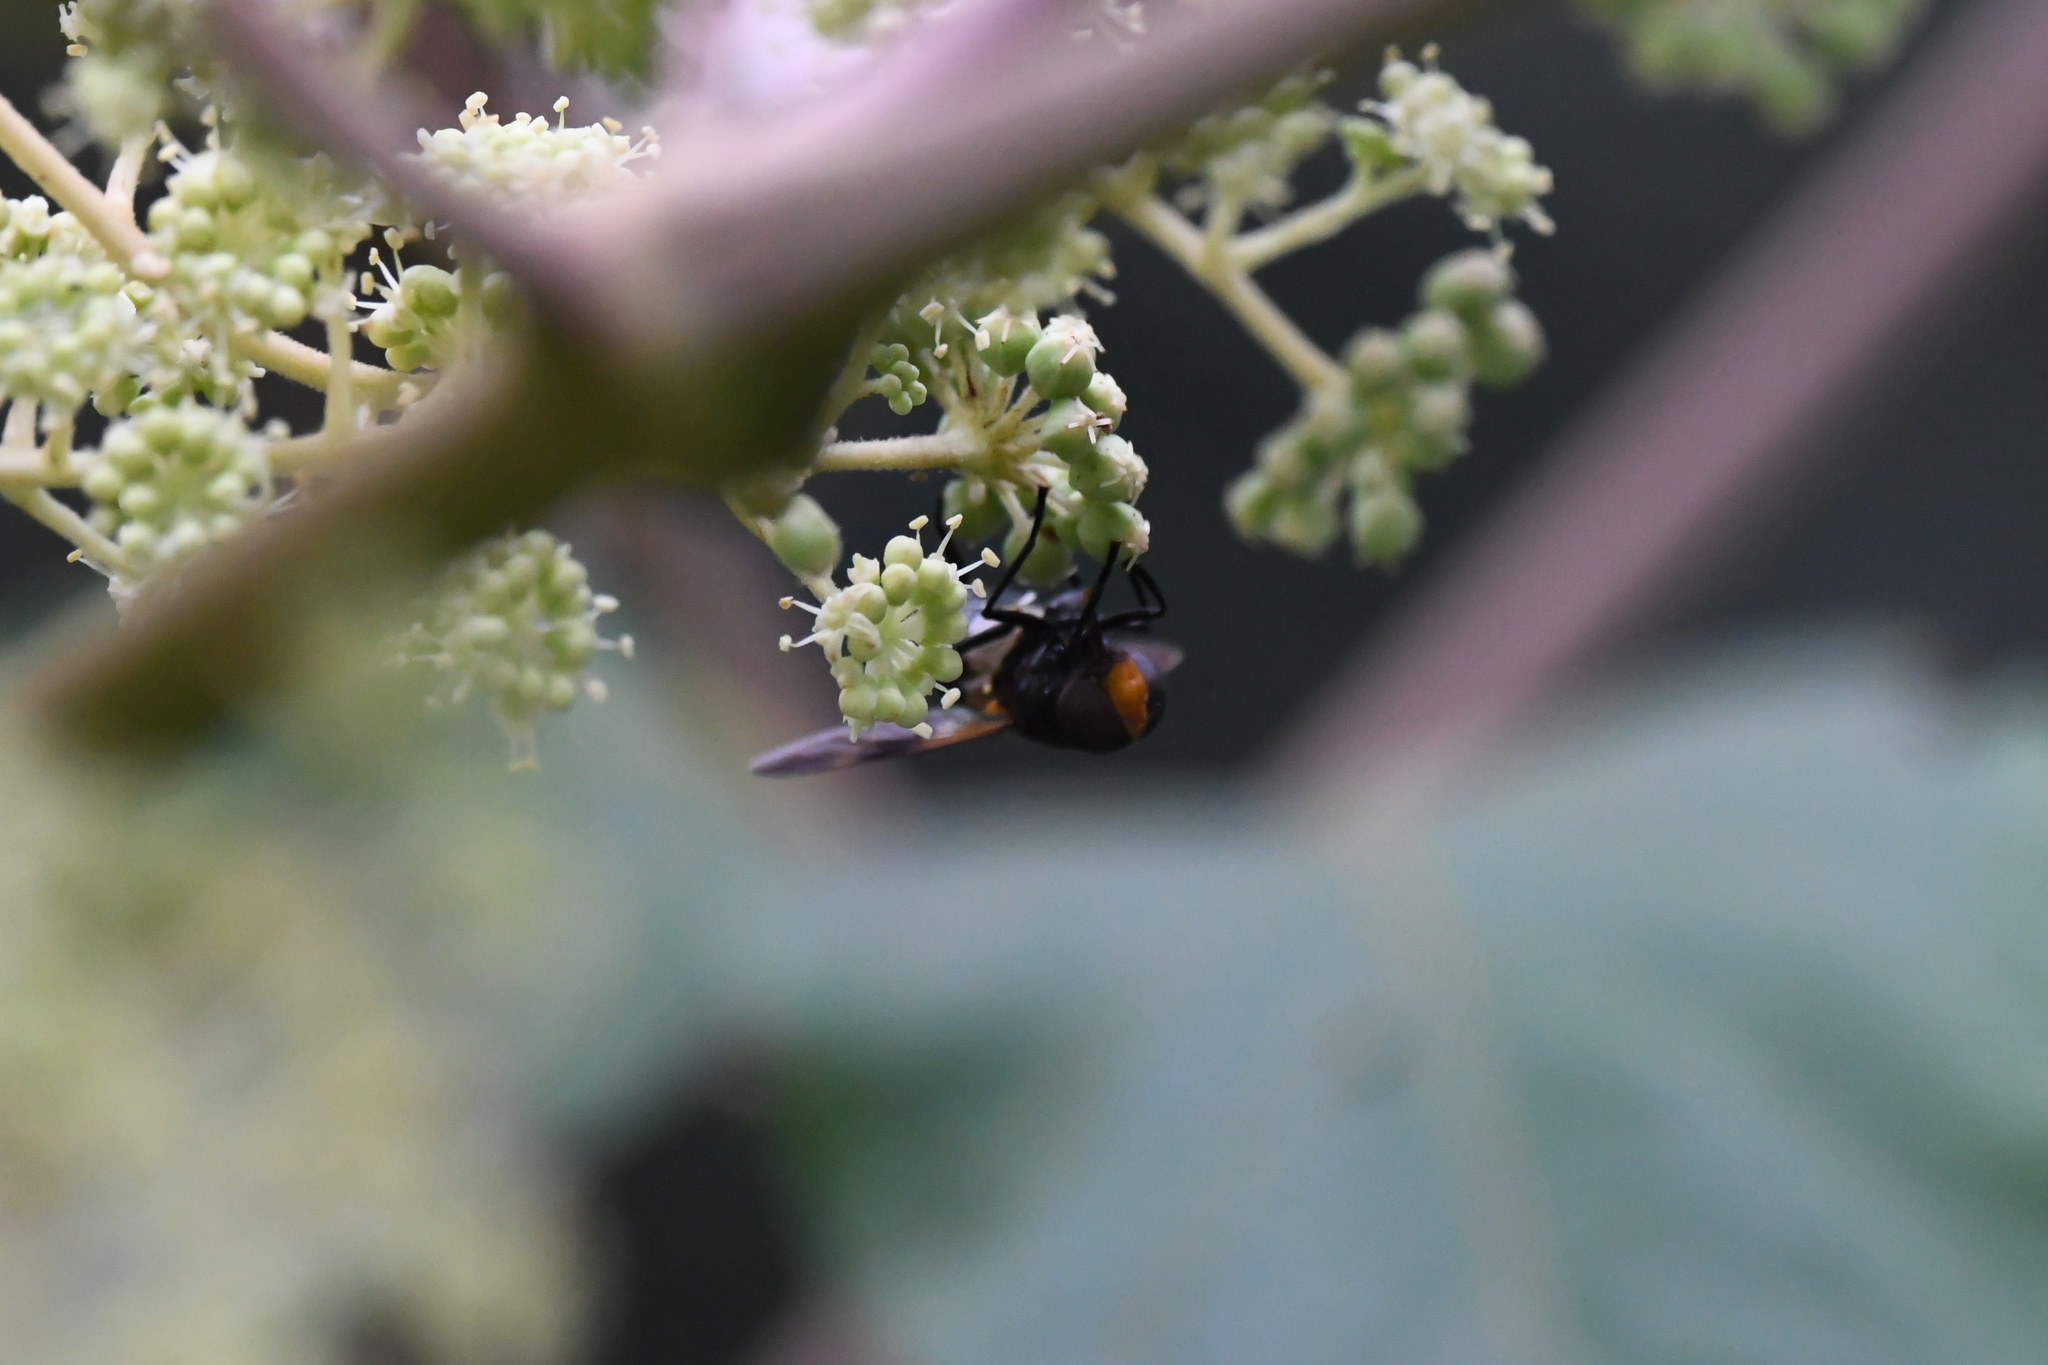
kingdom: Animalia
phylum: Arthropoda
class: Insecta
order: Diptera
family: Syrphidae
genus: Volucella
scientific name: Volucella nigricans
